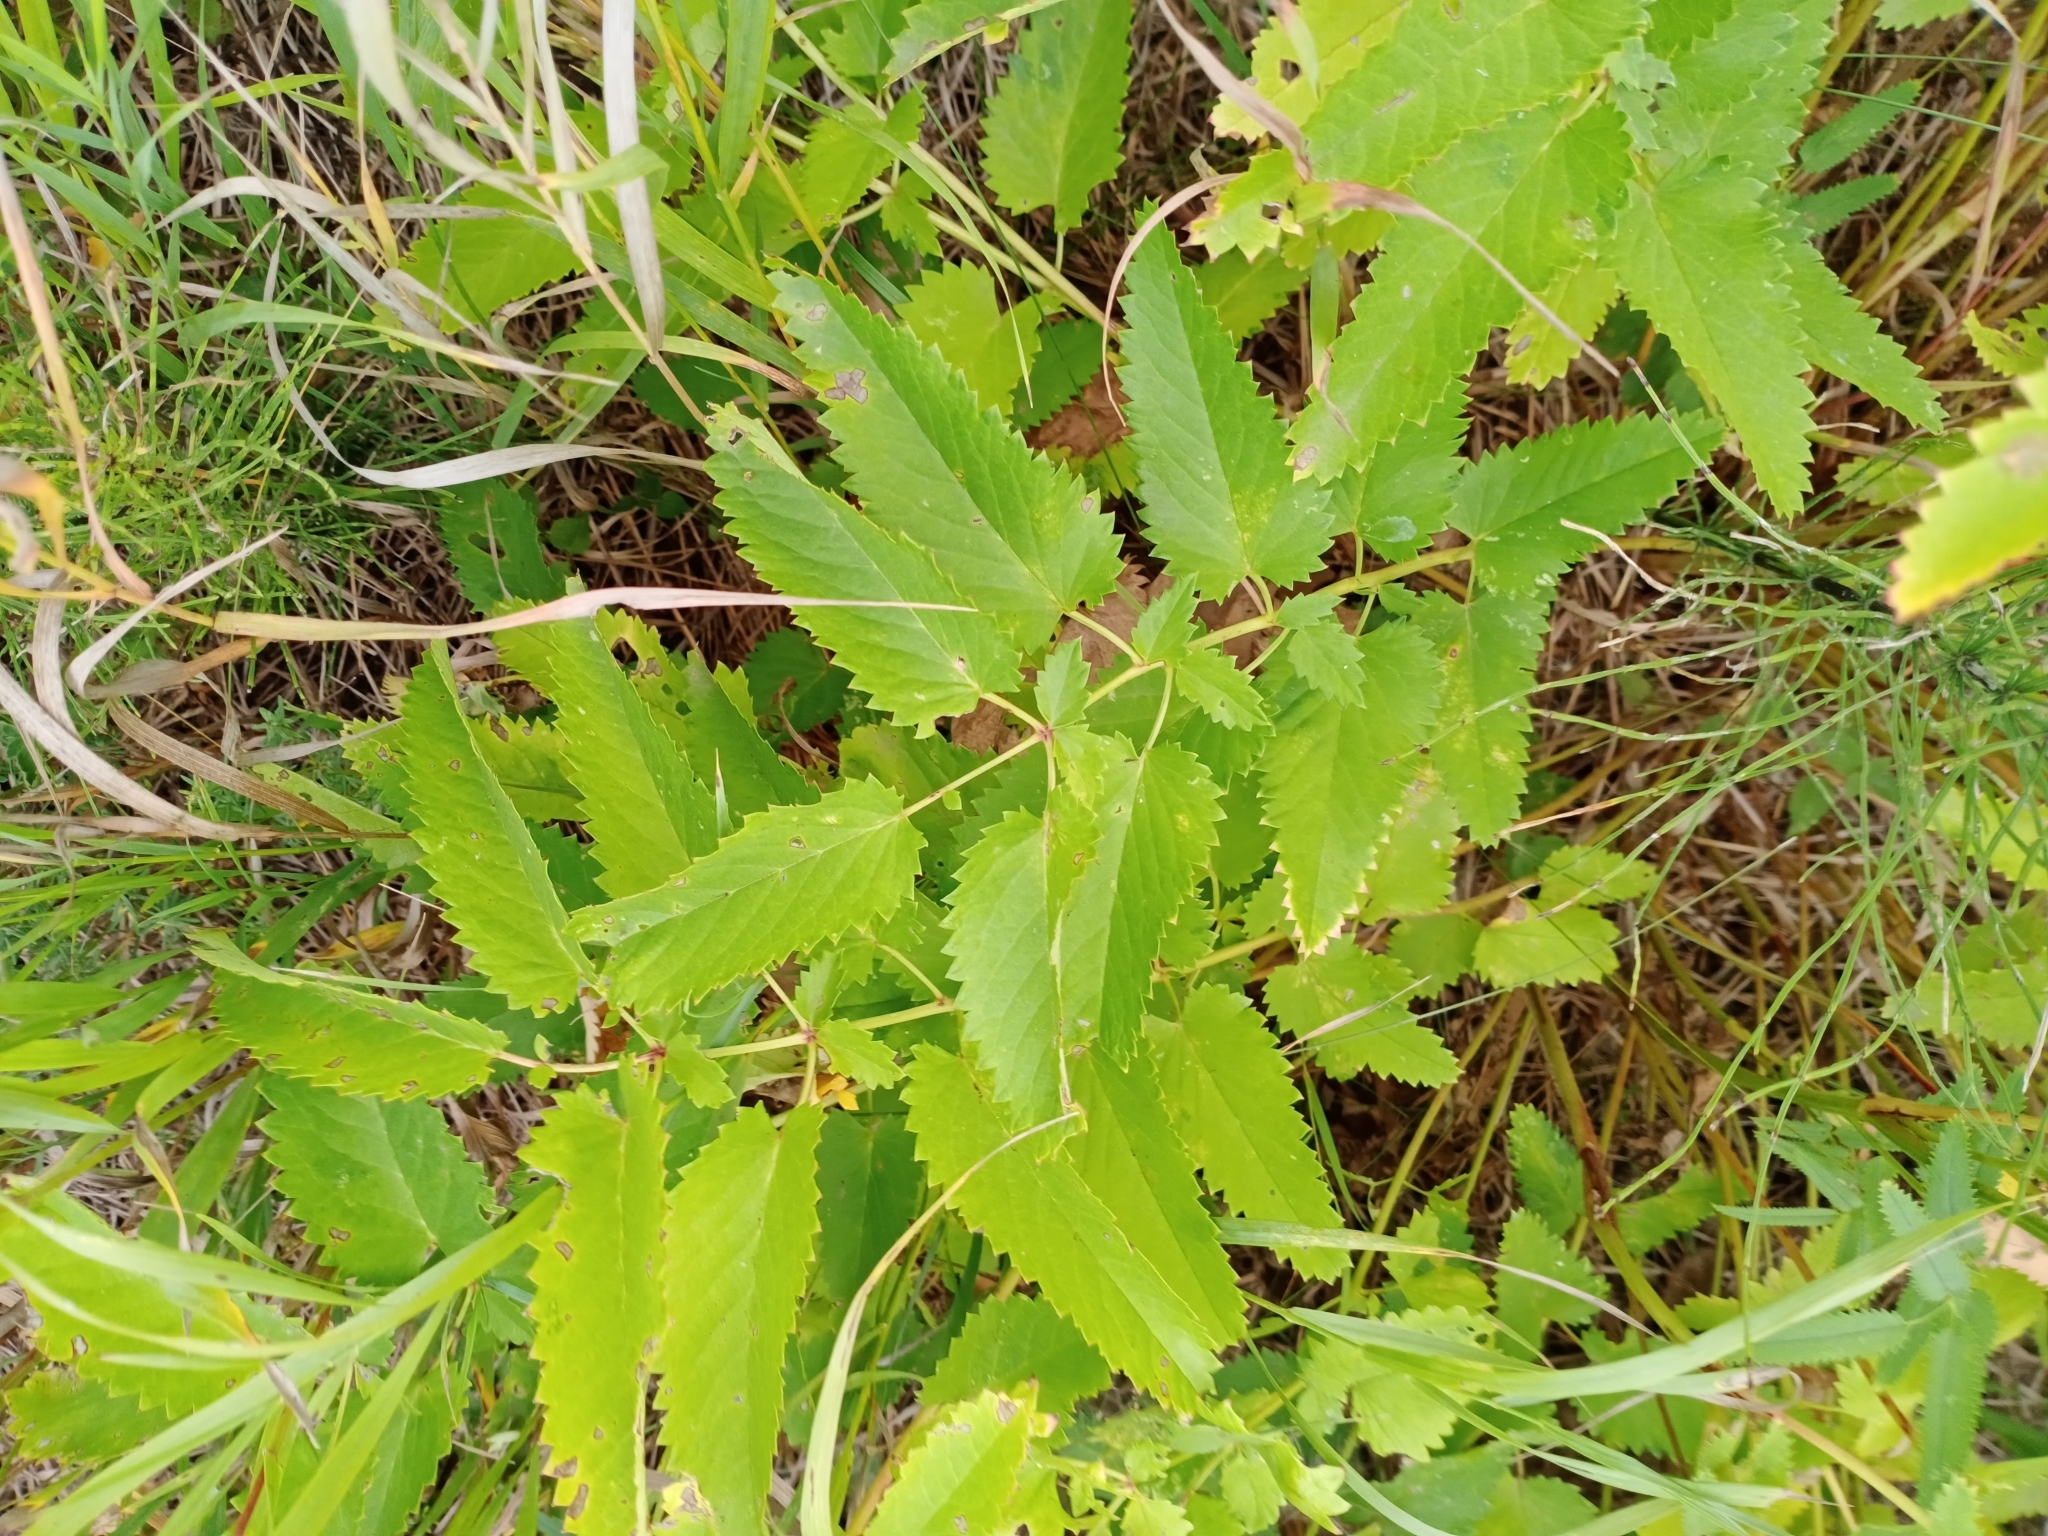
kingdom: Plantae
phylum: Tracheophyta
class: Magnoliopsida
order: Rosales
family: Rosaceae
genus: Sanguisorba
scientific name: Sanguisorba officinalis
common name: Great burnet
